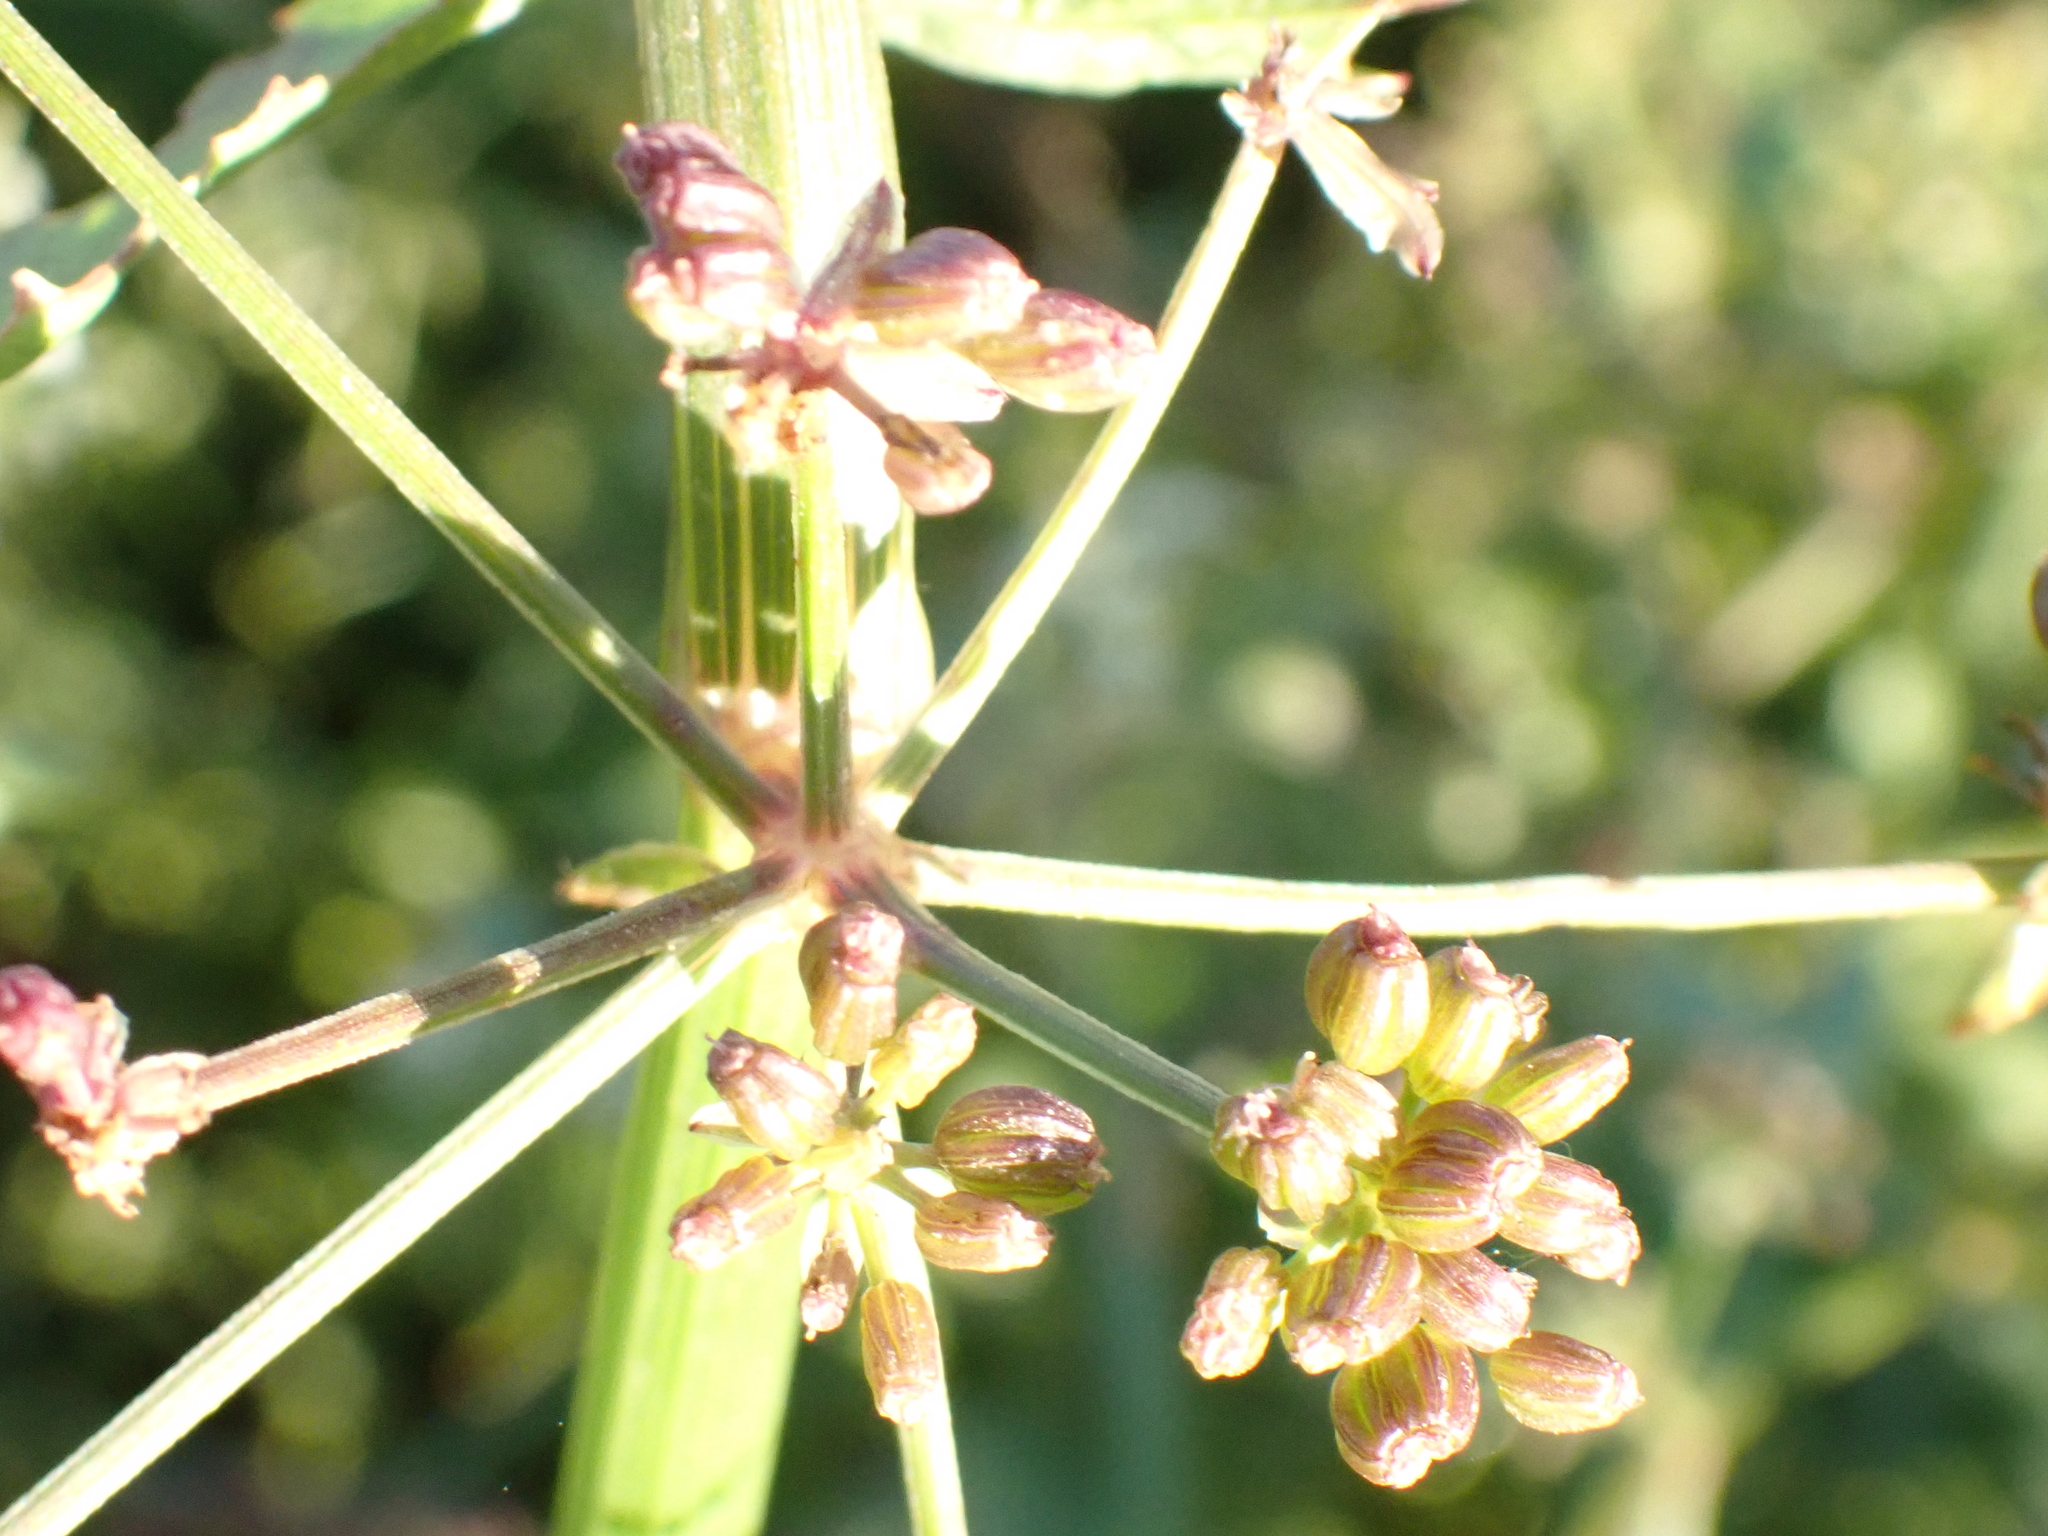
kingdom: Plantae
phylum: Tracheophyta
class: Magnoliopsida
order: Apiales
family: Apiaceae
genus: Helosciadium
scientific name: Helosciadium nodiflorum
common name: Fool's-watercress
